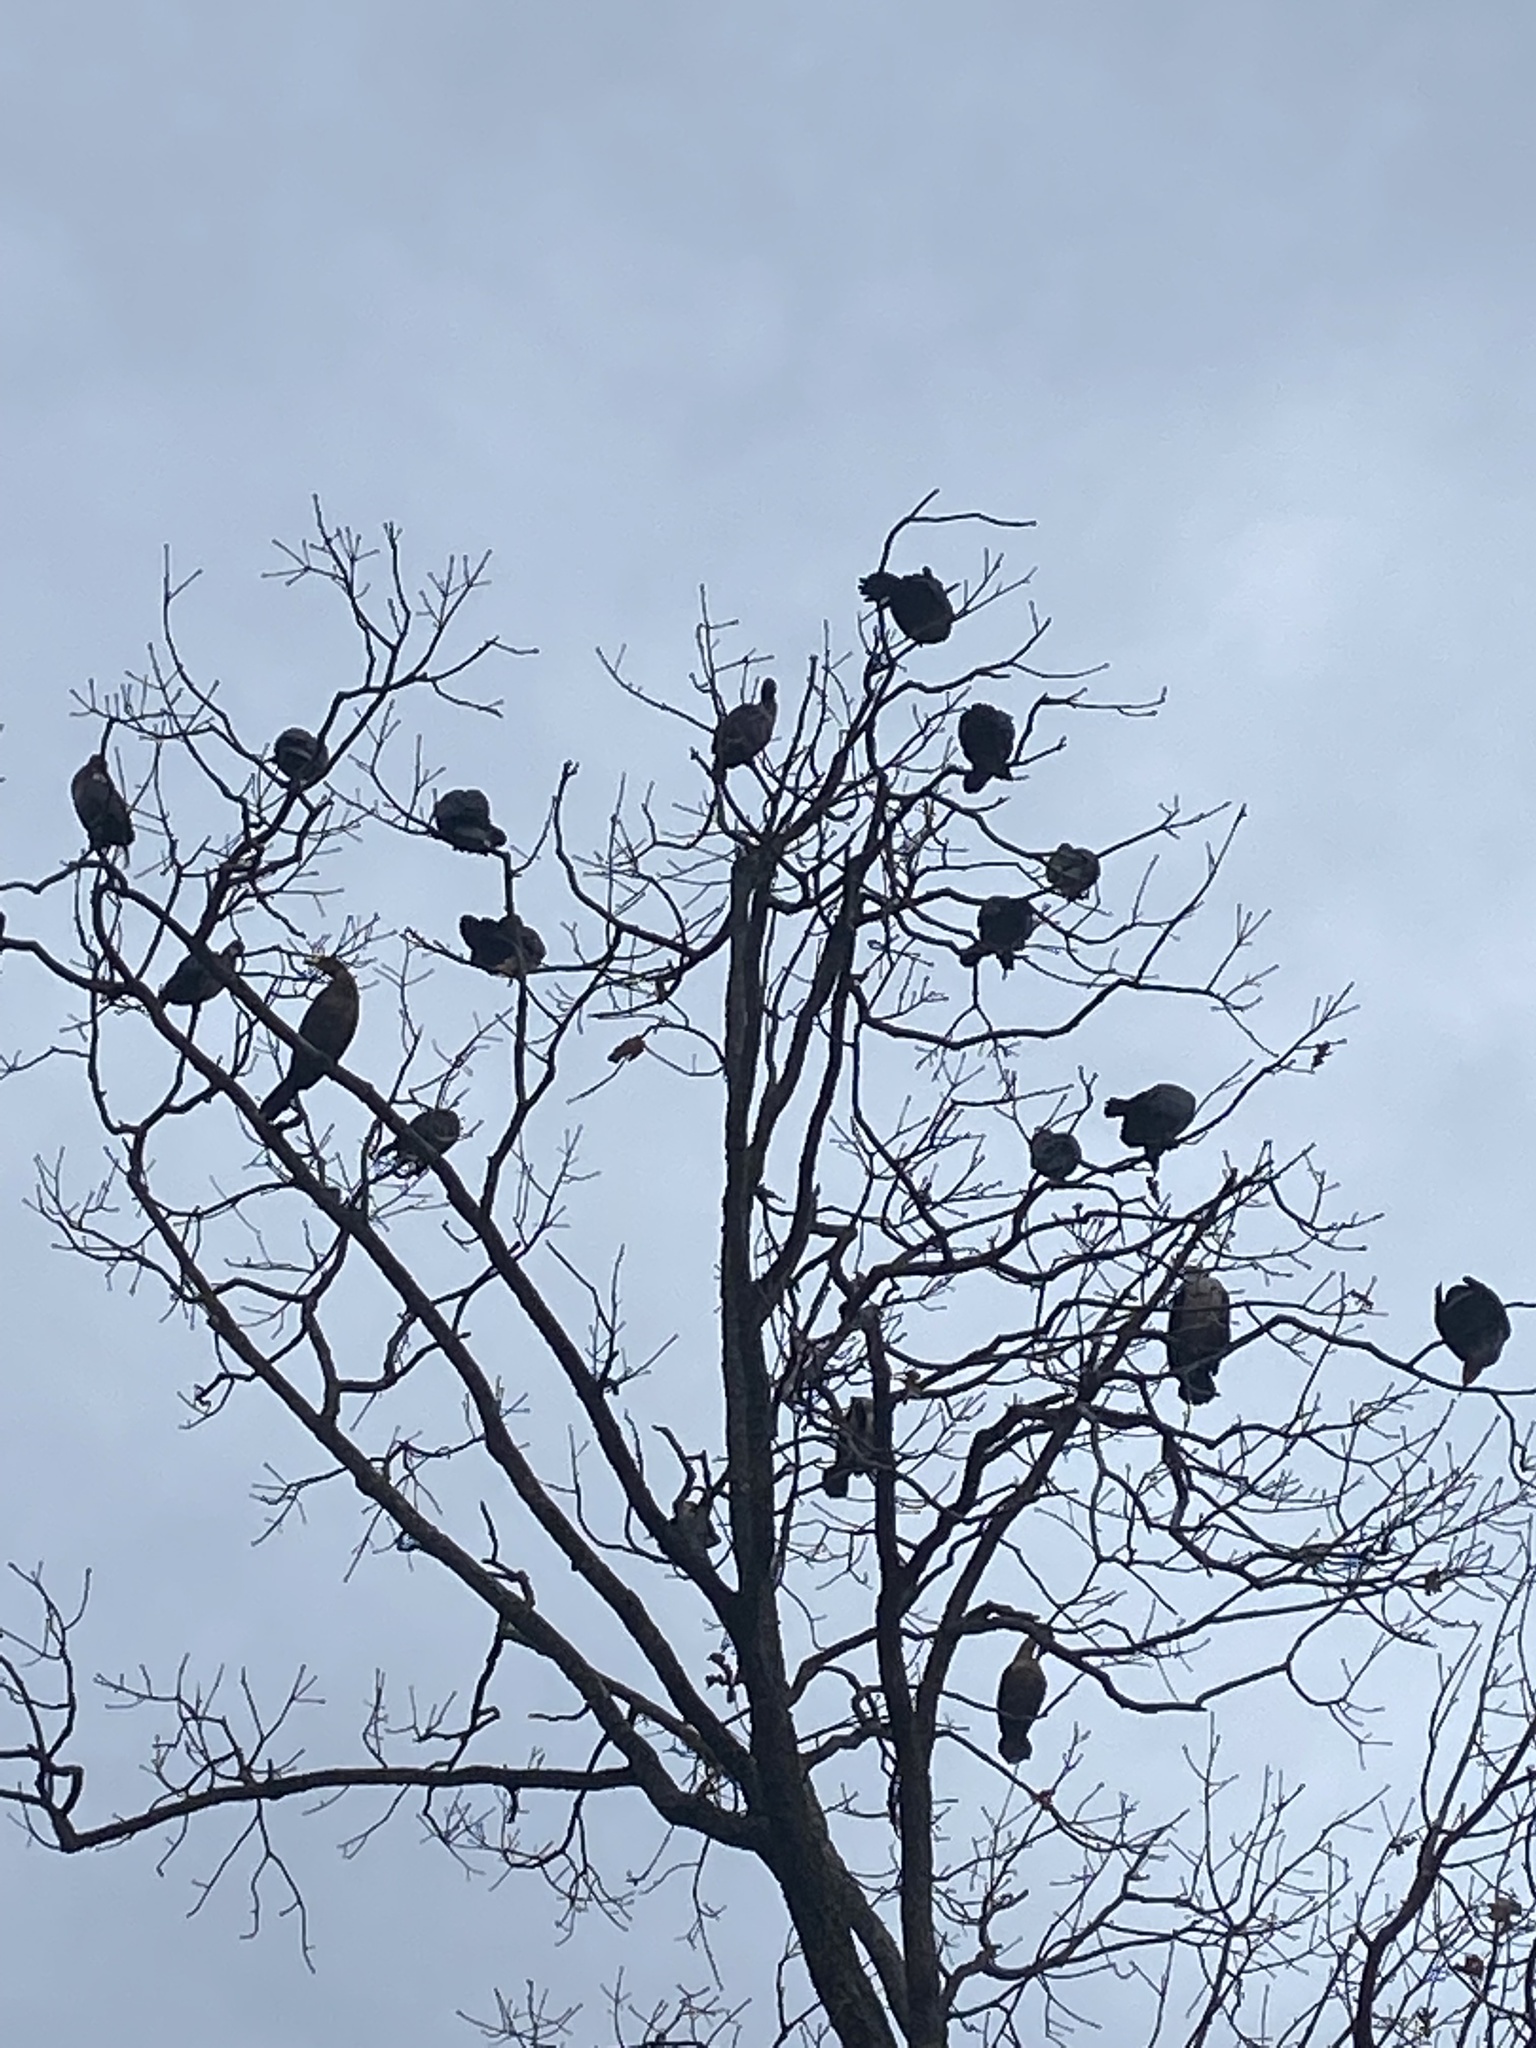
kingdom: Animalia
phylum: Chordata
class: Aves
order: Suliformes
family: Phalacrocoracidae
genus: Phalacrocorax
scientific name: Phalacrocorax auritus
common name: Double-crested cormorant
